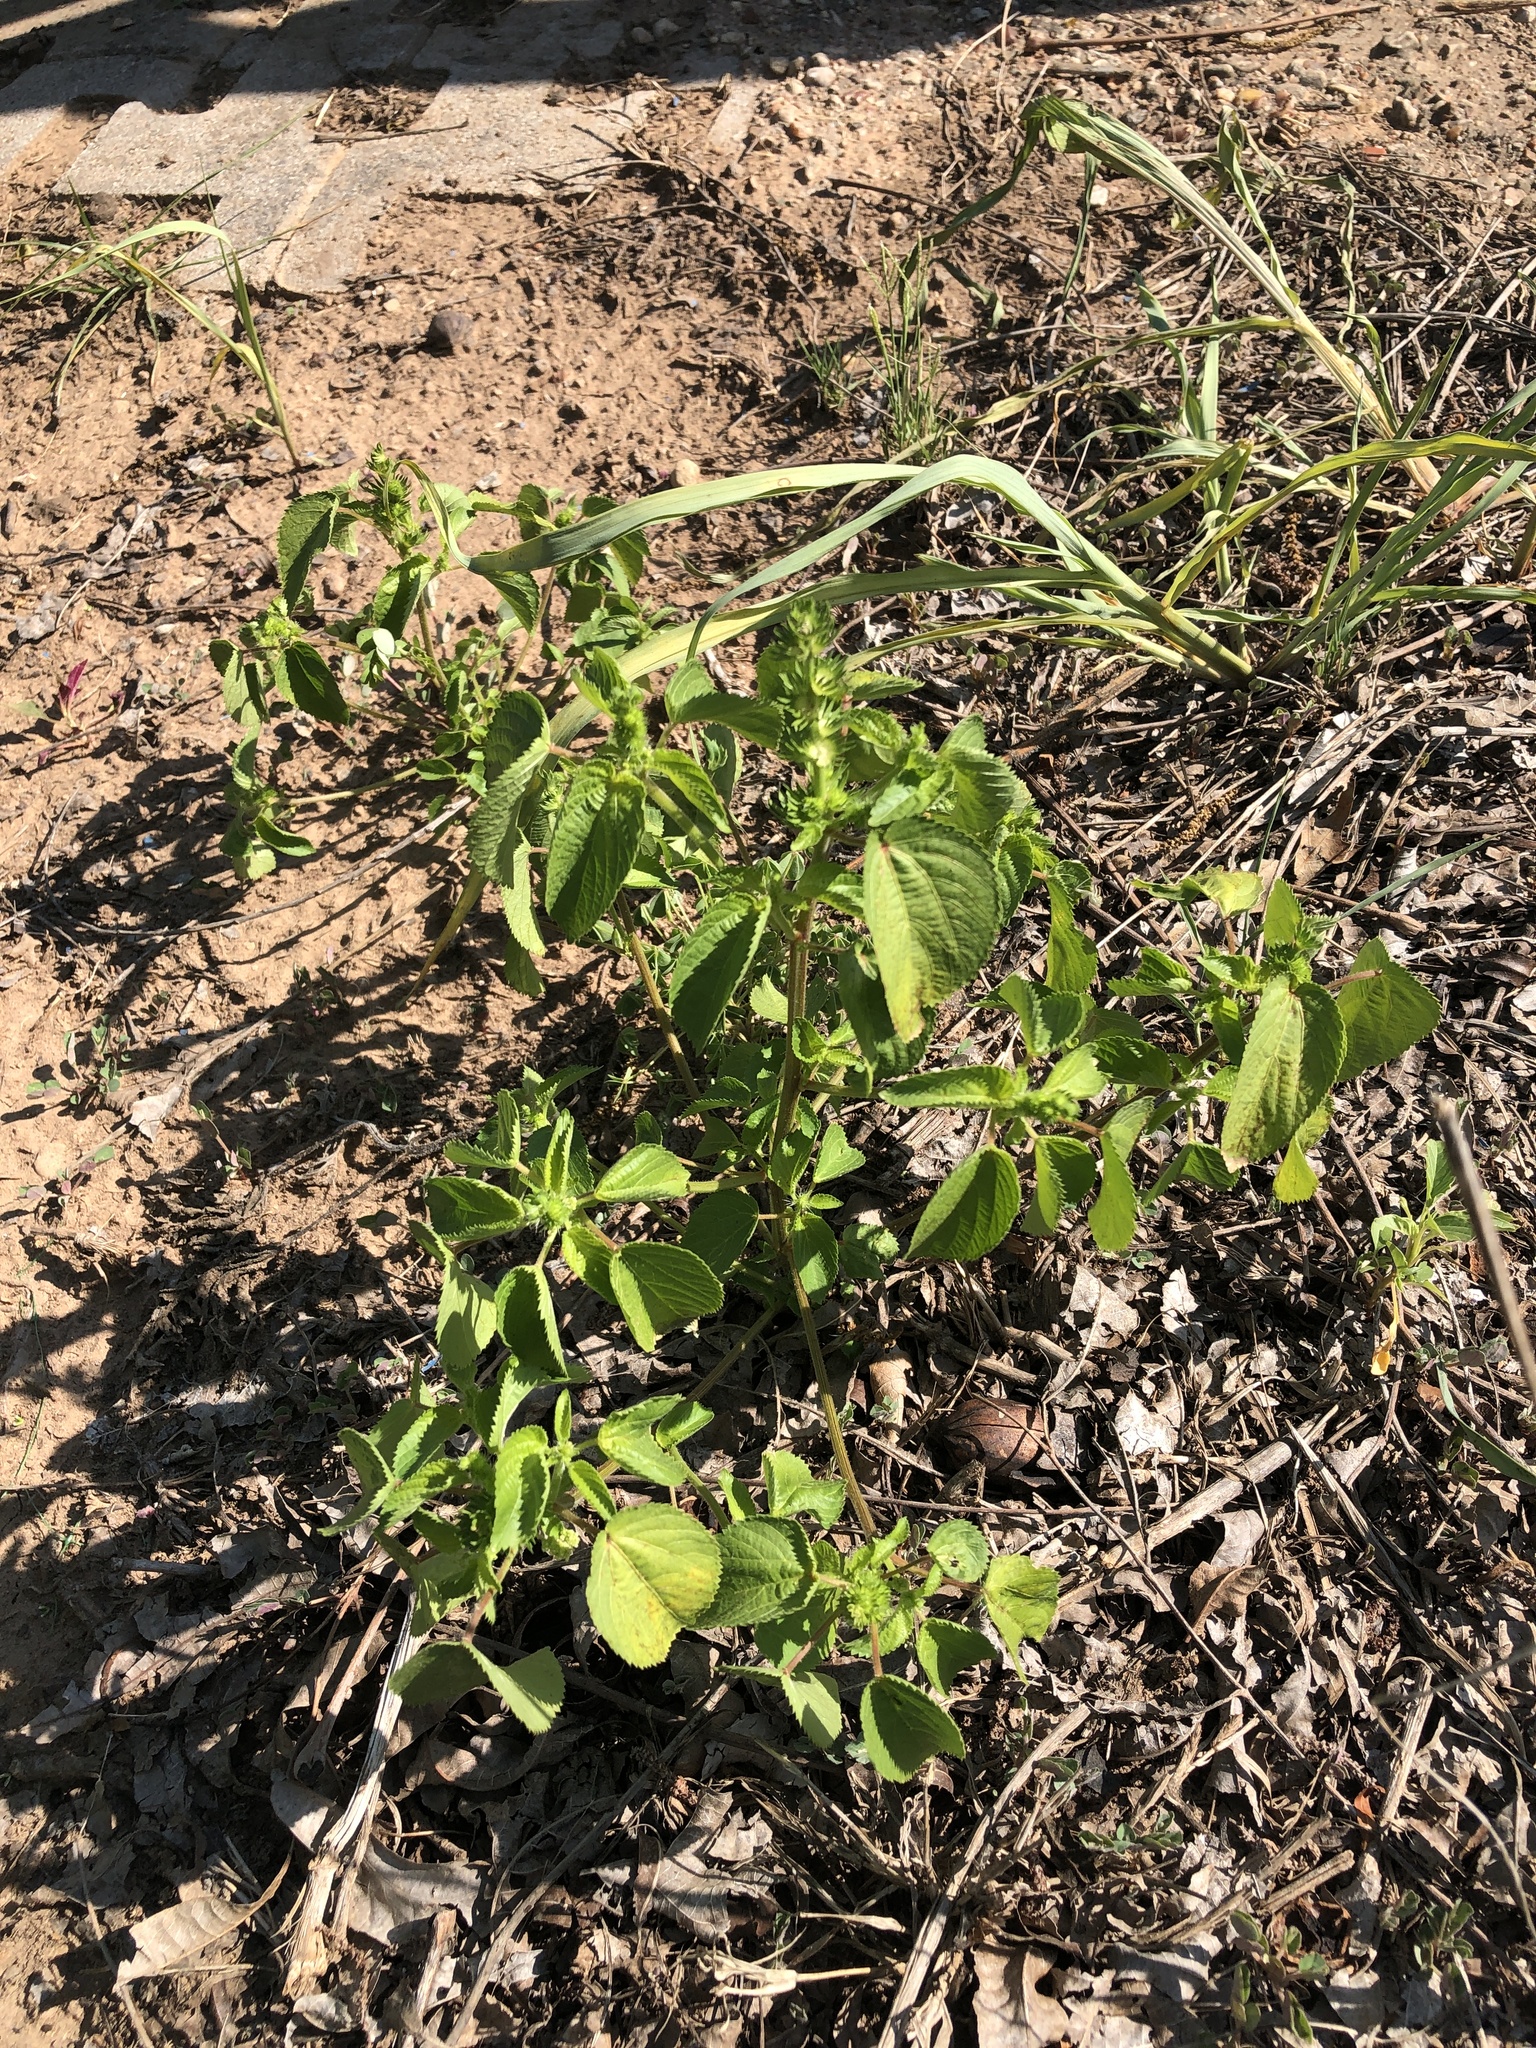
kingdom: Plantae
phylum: Tracheophyta
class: Magnoliopsida
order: Malpighiales
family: Euphorbiaceae
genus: Acalypha
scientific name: Acalypha ostryifolia
